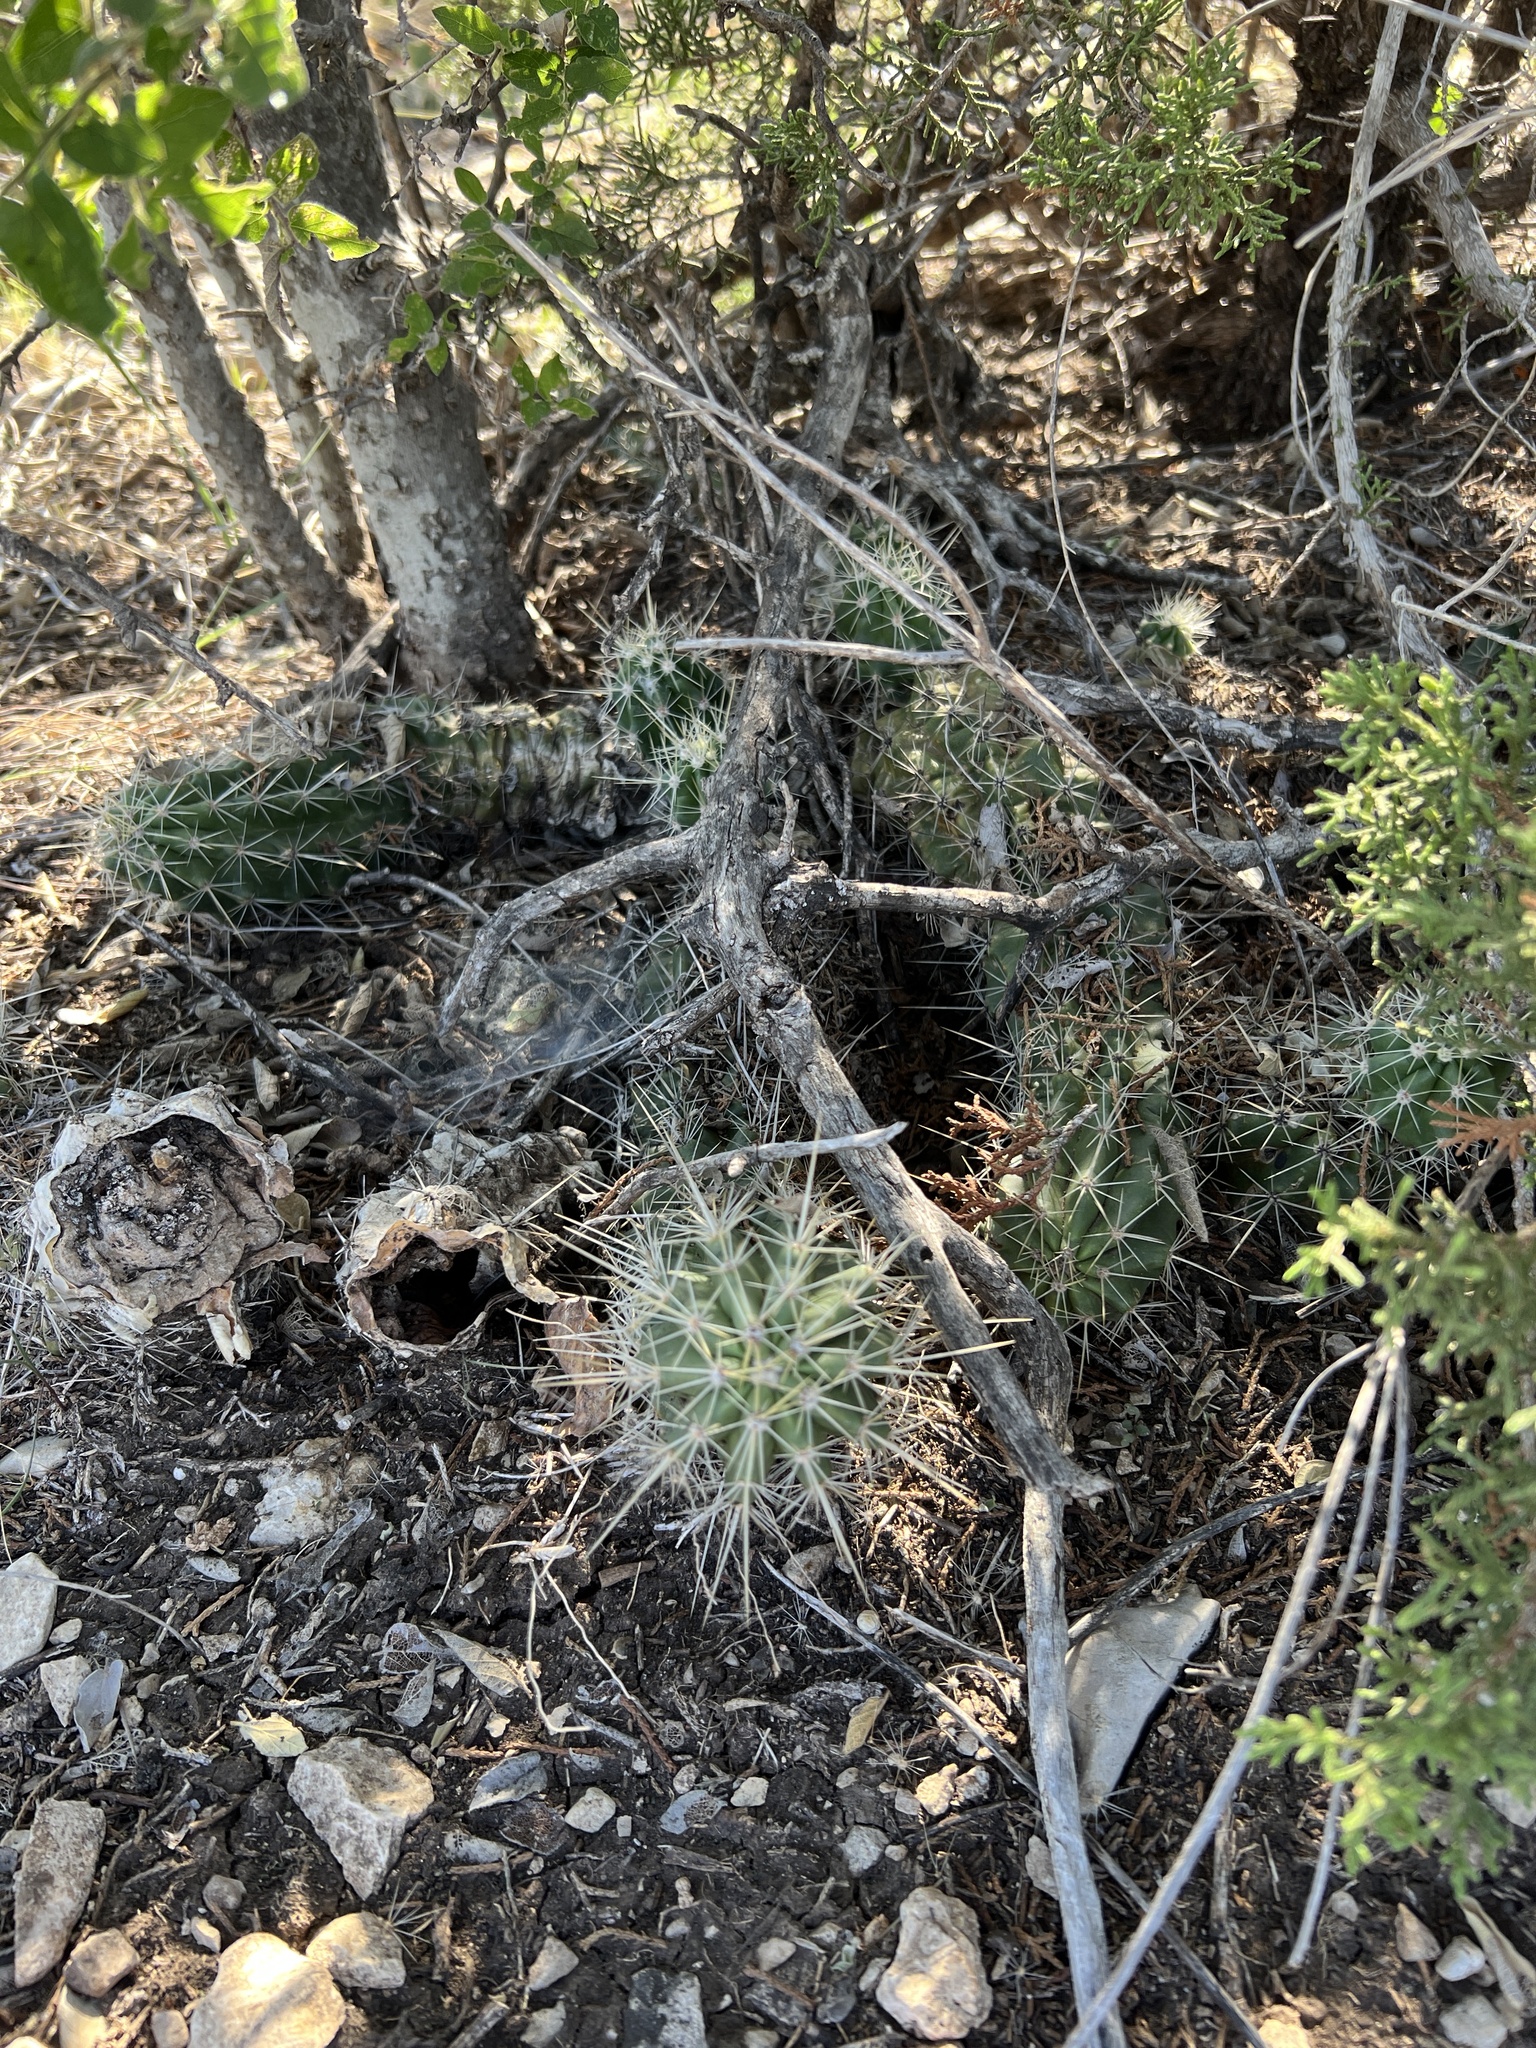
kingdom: Plantae
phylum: Tracheophyta
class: Magnoliopsida
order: Caryophyllales
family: Cactaceae
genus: Echinocereus
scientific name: Echinocereus enneacanthus
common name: Pitaya
